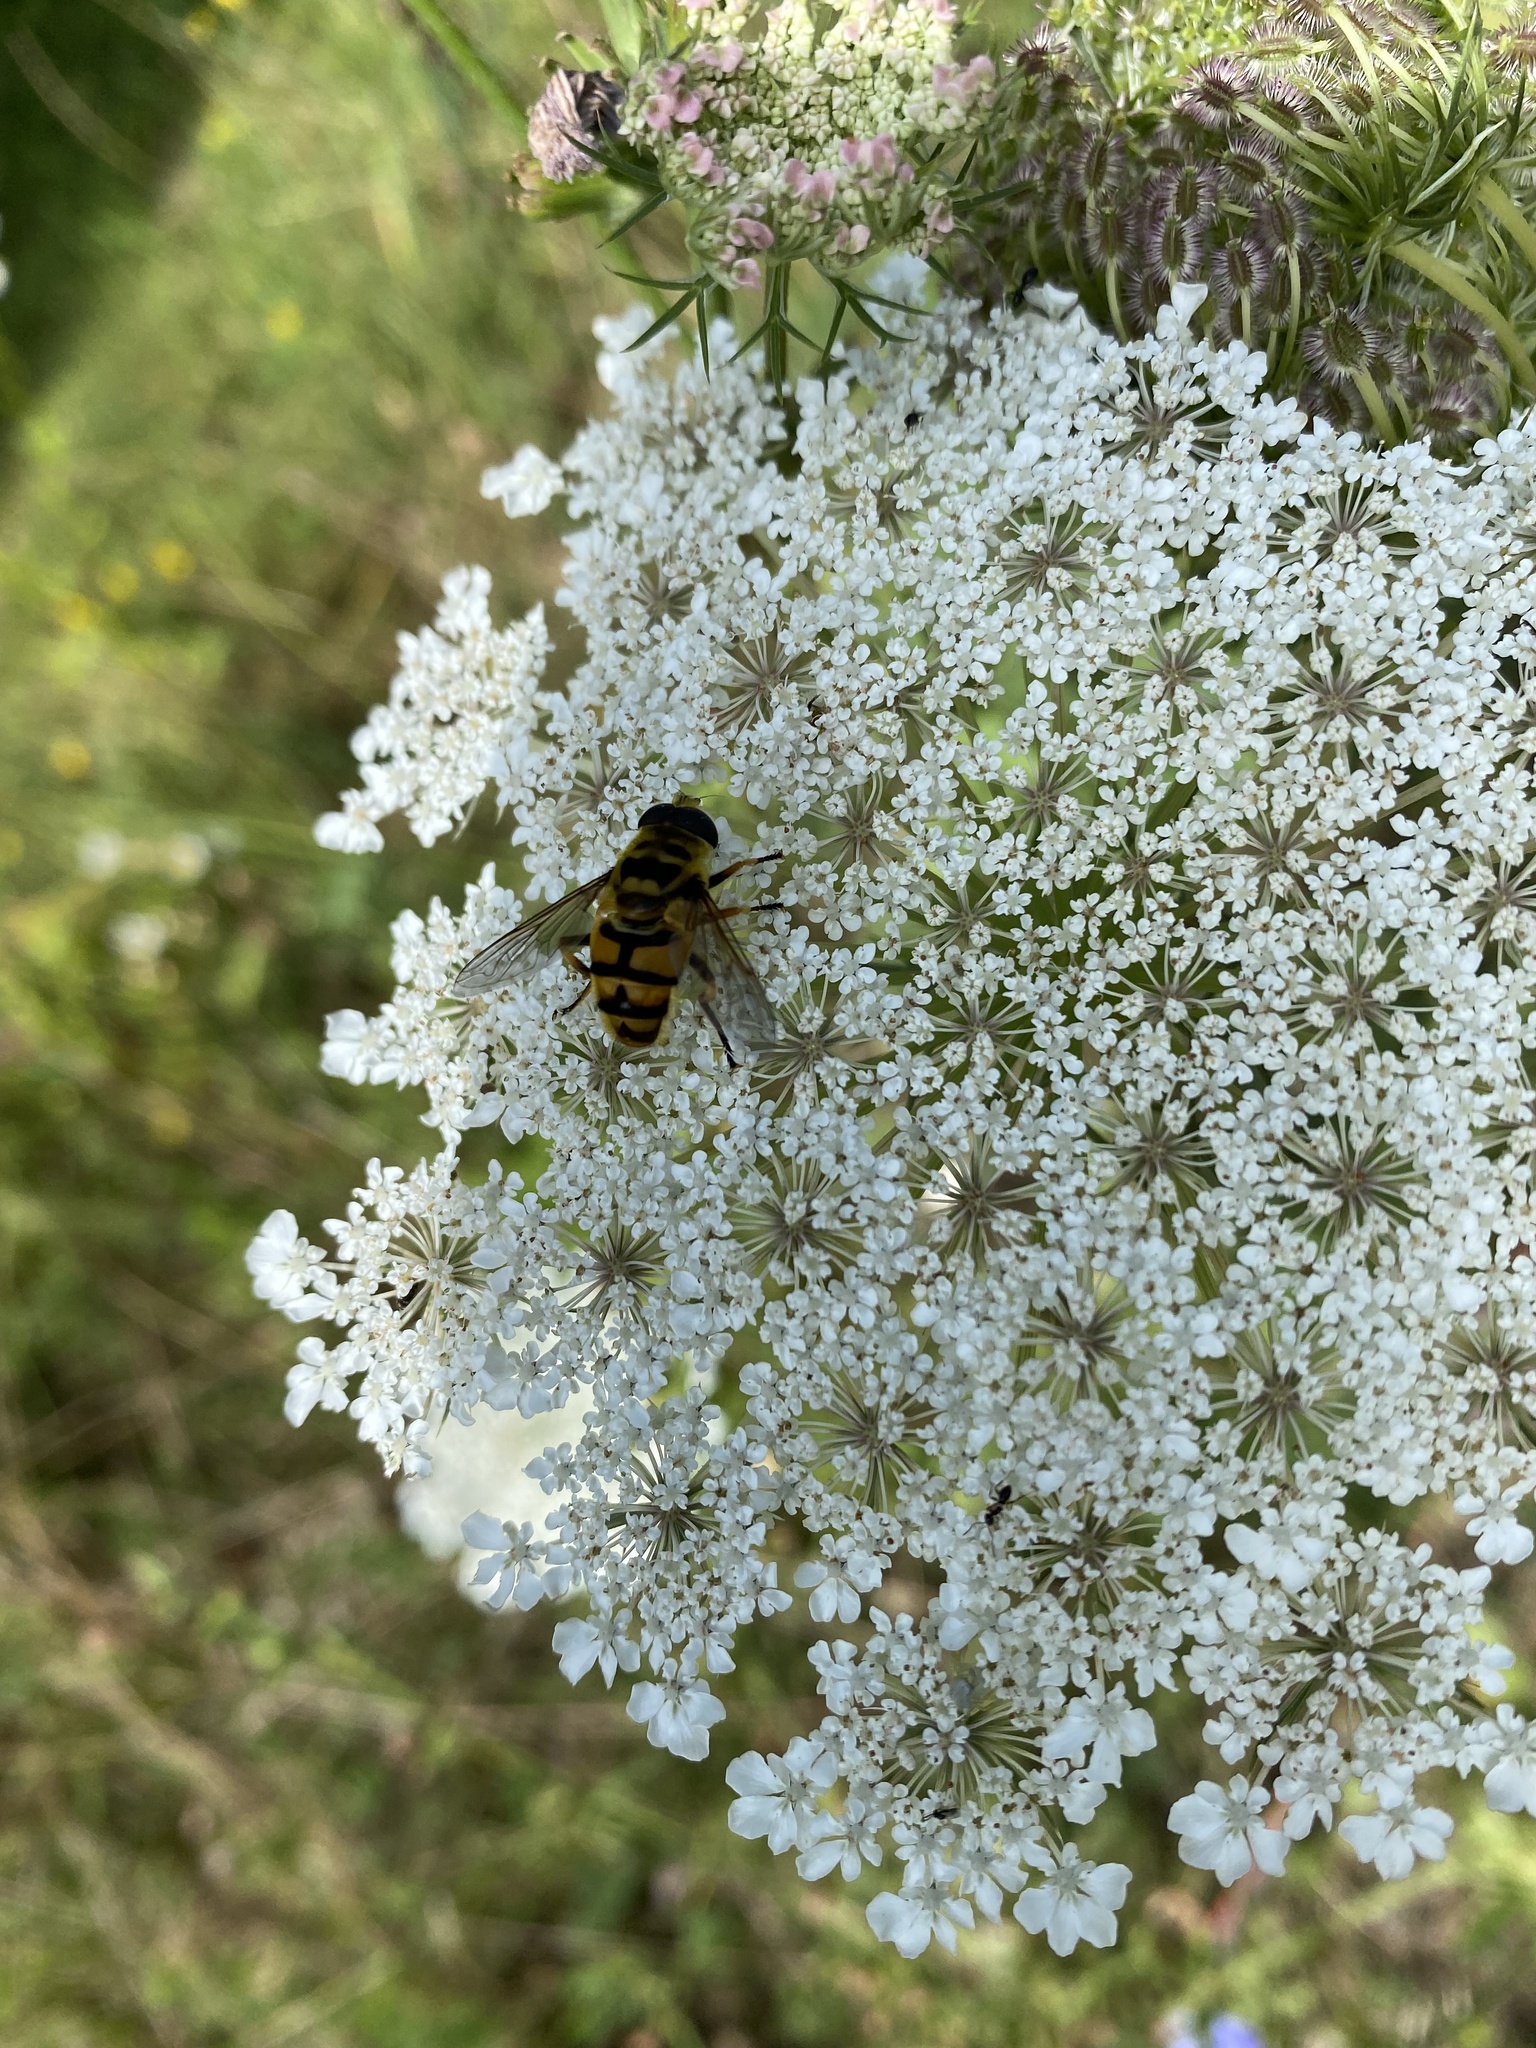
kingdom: Animalia
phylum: Arthropoda
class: Insecta
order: Diptera
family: Syrphidae
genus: Myathropa
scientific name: Myathropa florea
